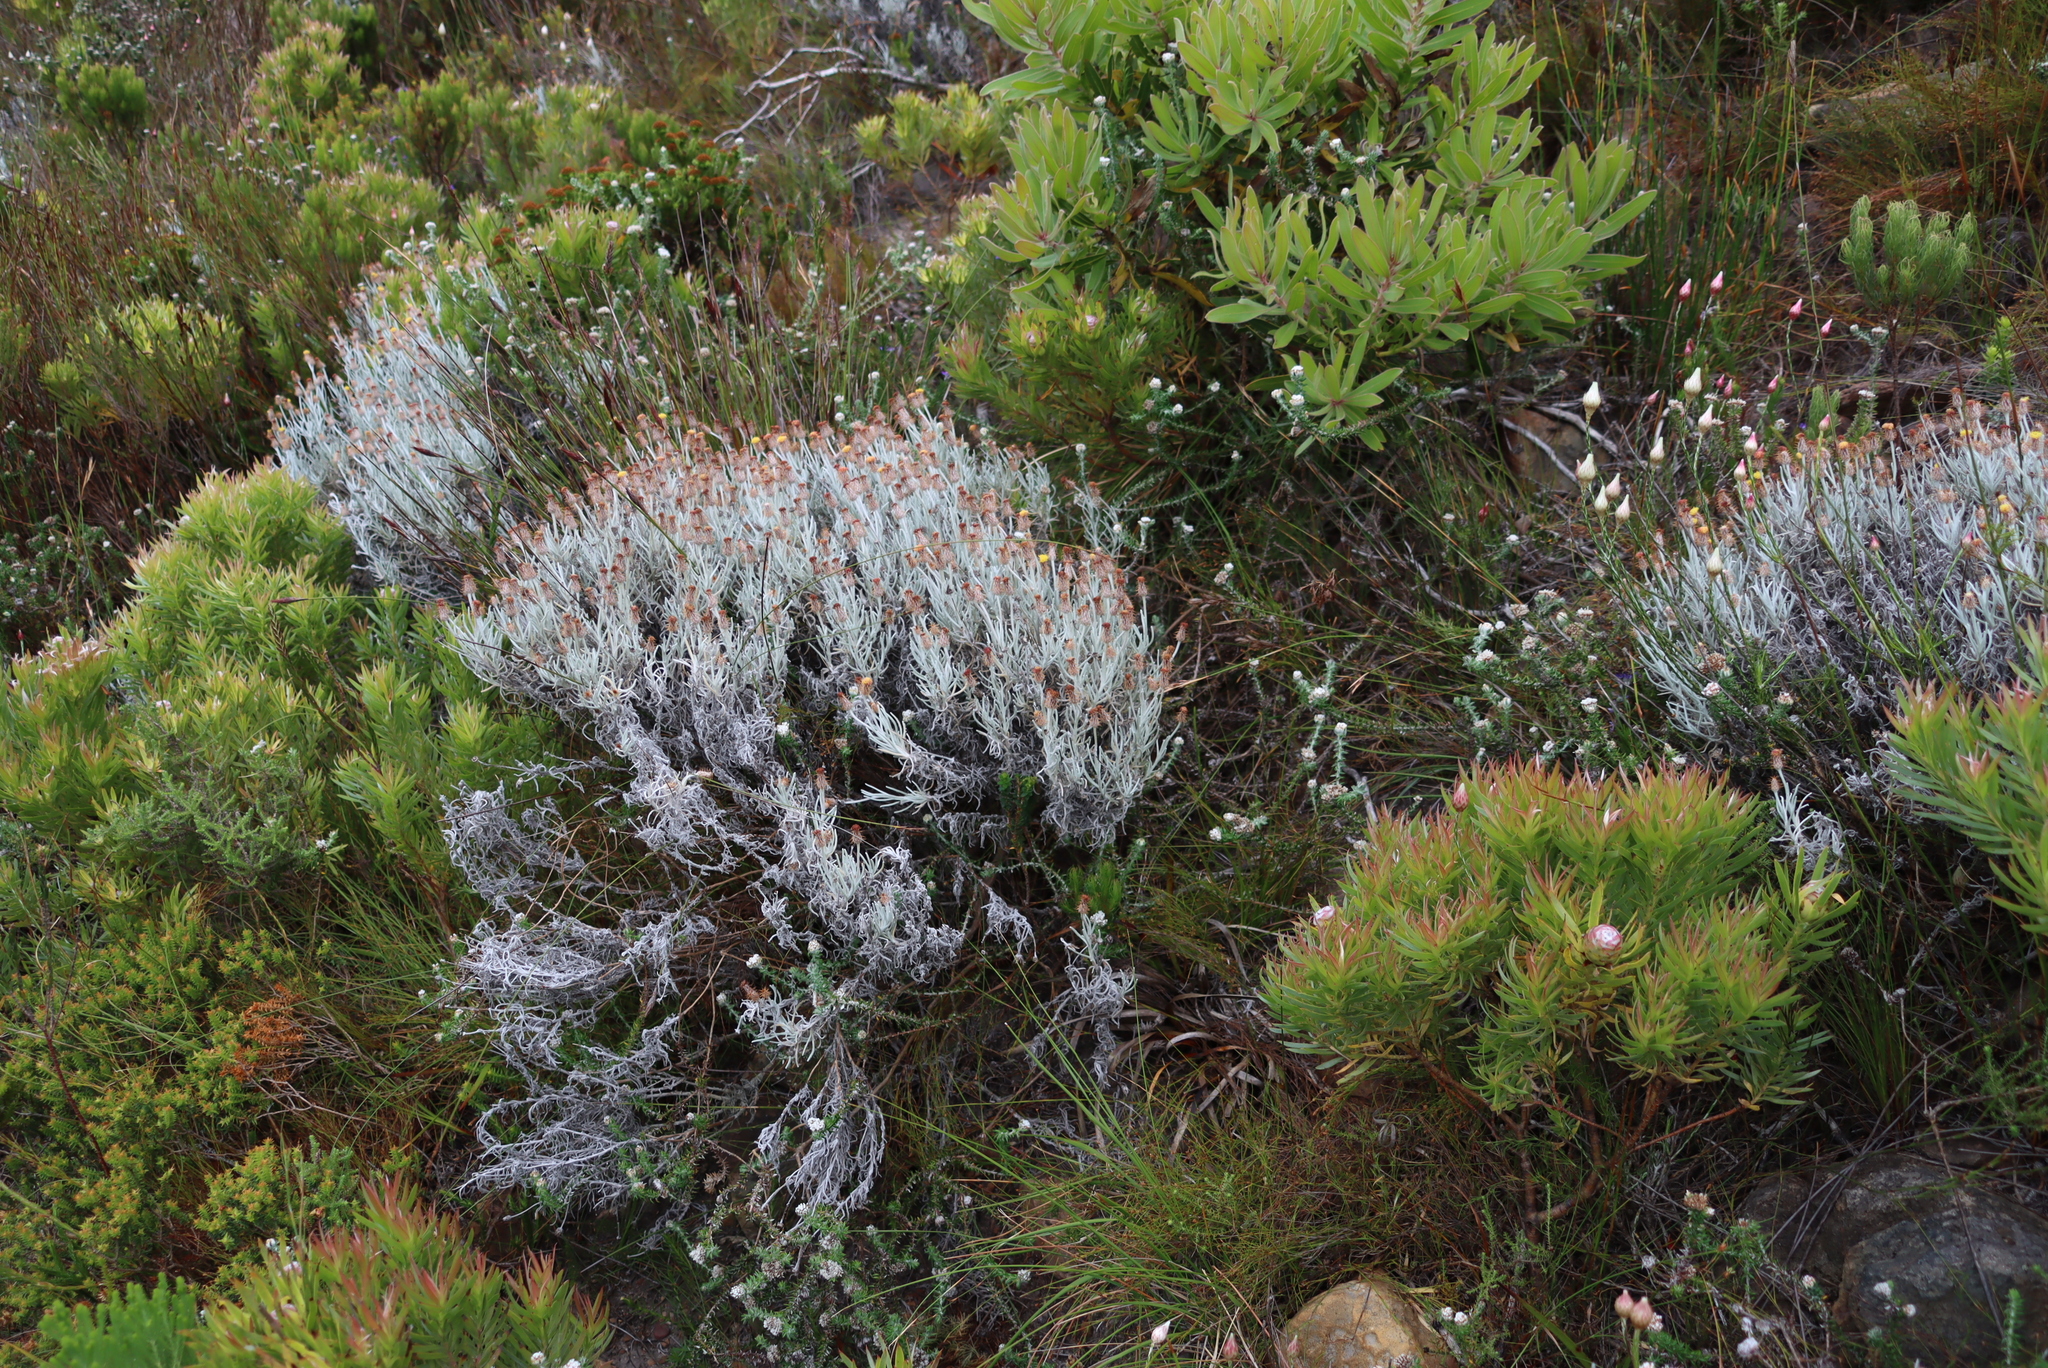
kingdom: Plantae
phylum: Tracheophyta
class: Magnoliopsida
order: Asterales
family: Asteraceae
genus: Syncarpha
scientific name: Syncarpha gnaphaloides
